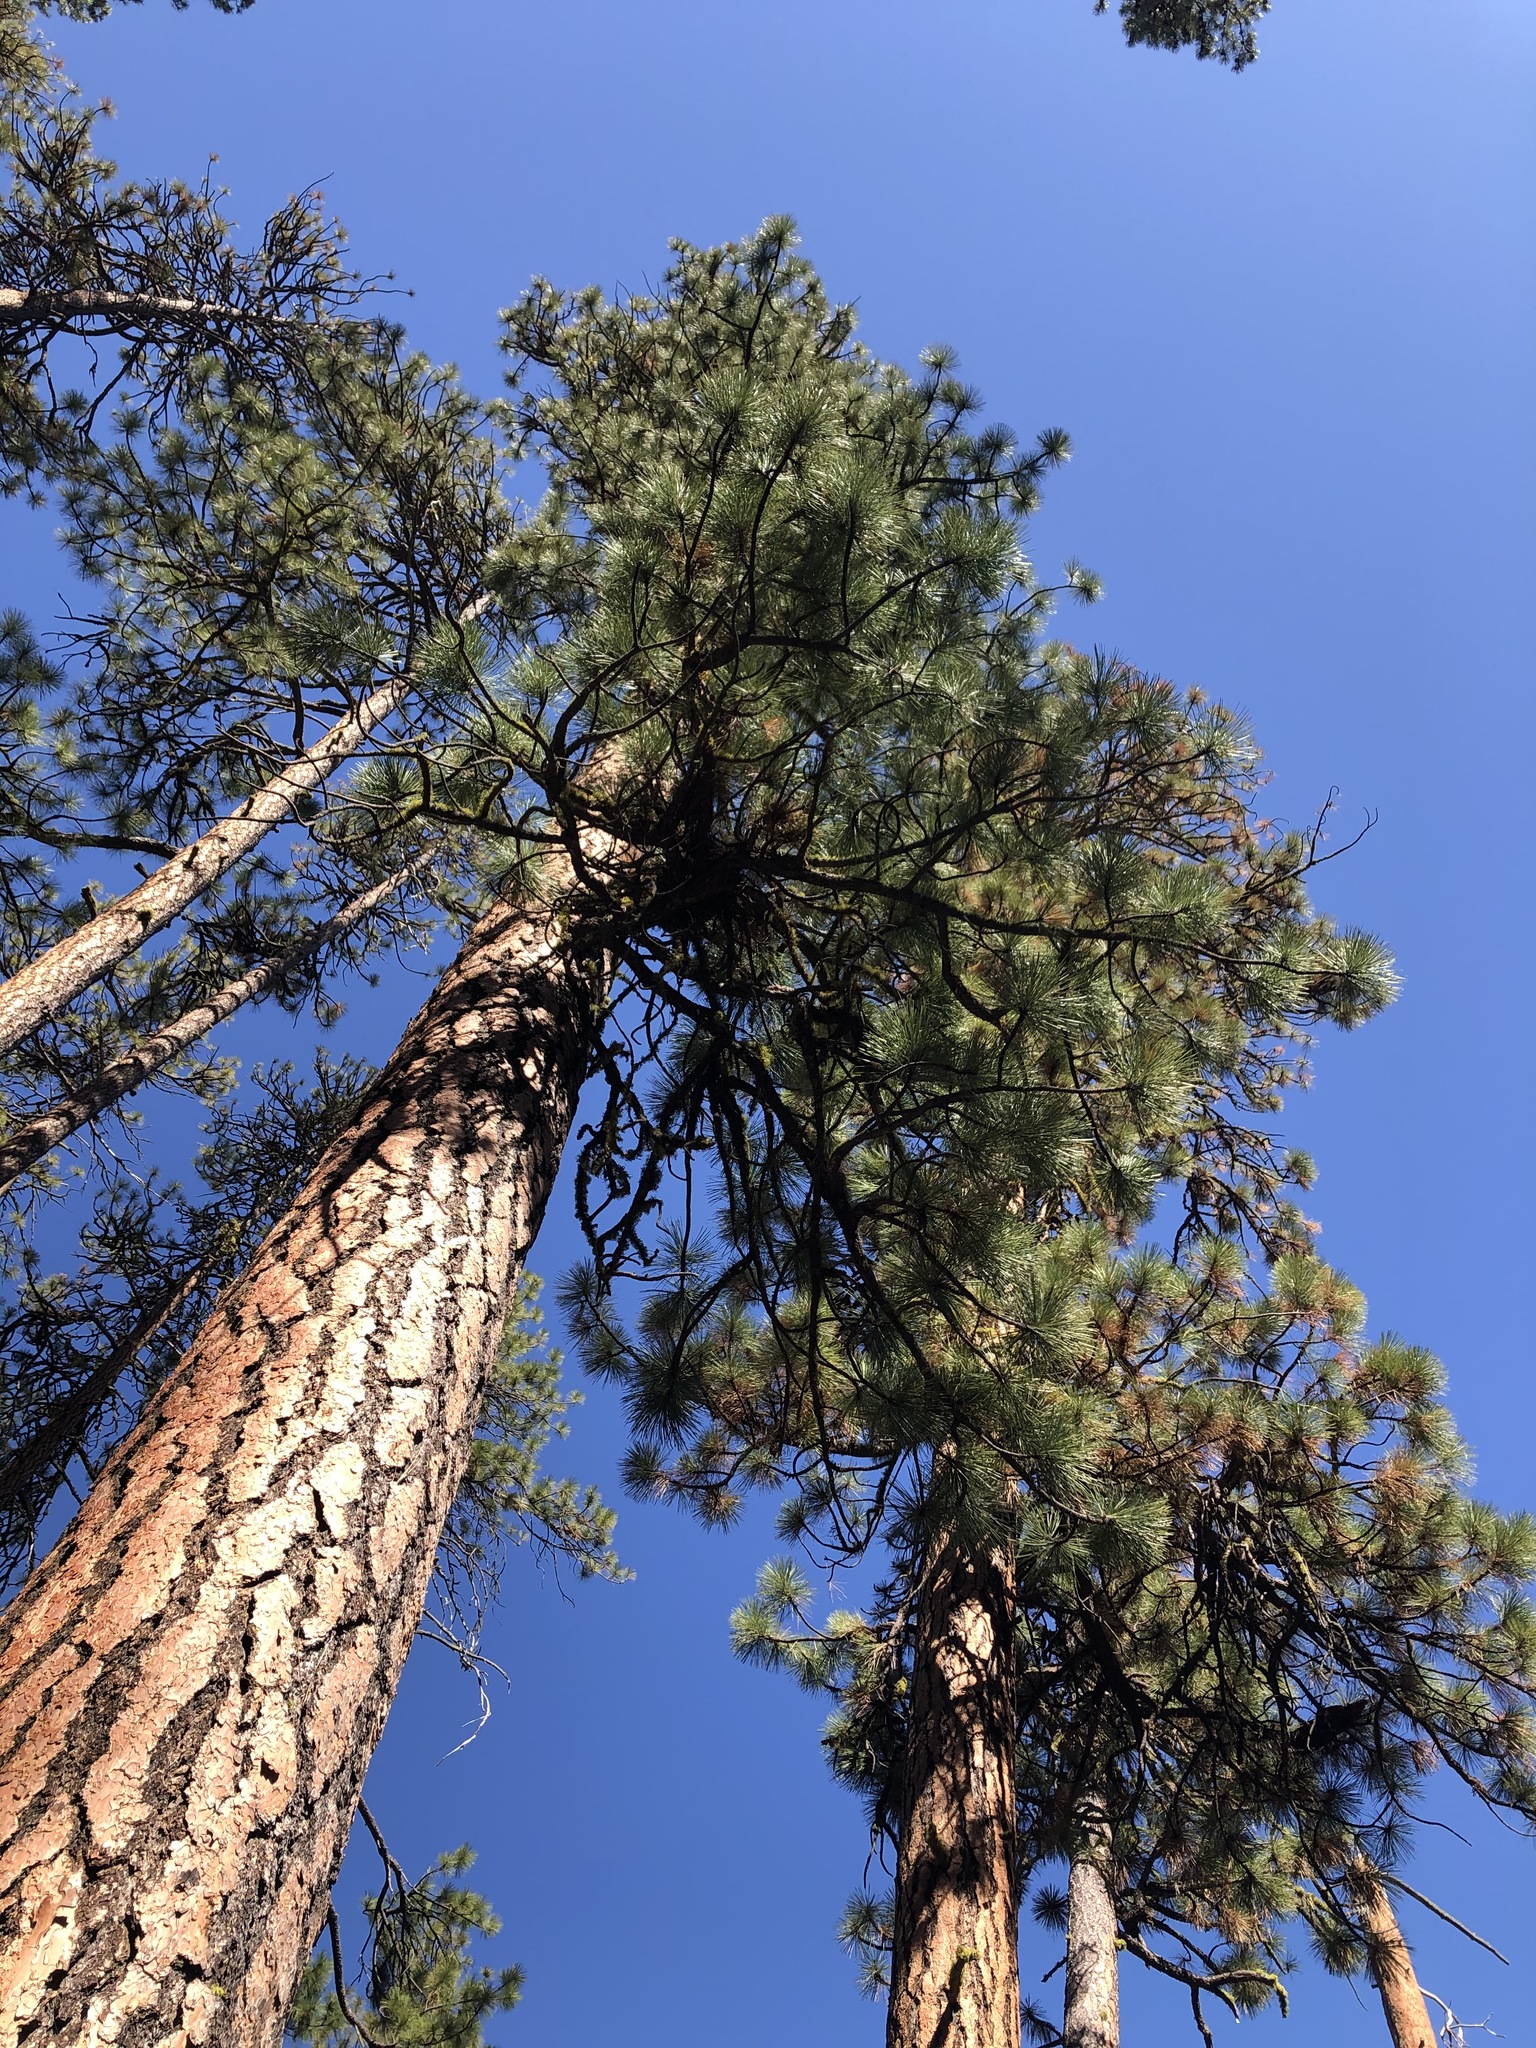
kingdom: Plantae
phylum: Tracheophyta
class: Pinopsida
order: Pinales
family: Pinaceae
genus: Pinus
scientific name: Pinus ponderosa
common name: Western yellow-pine
